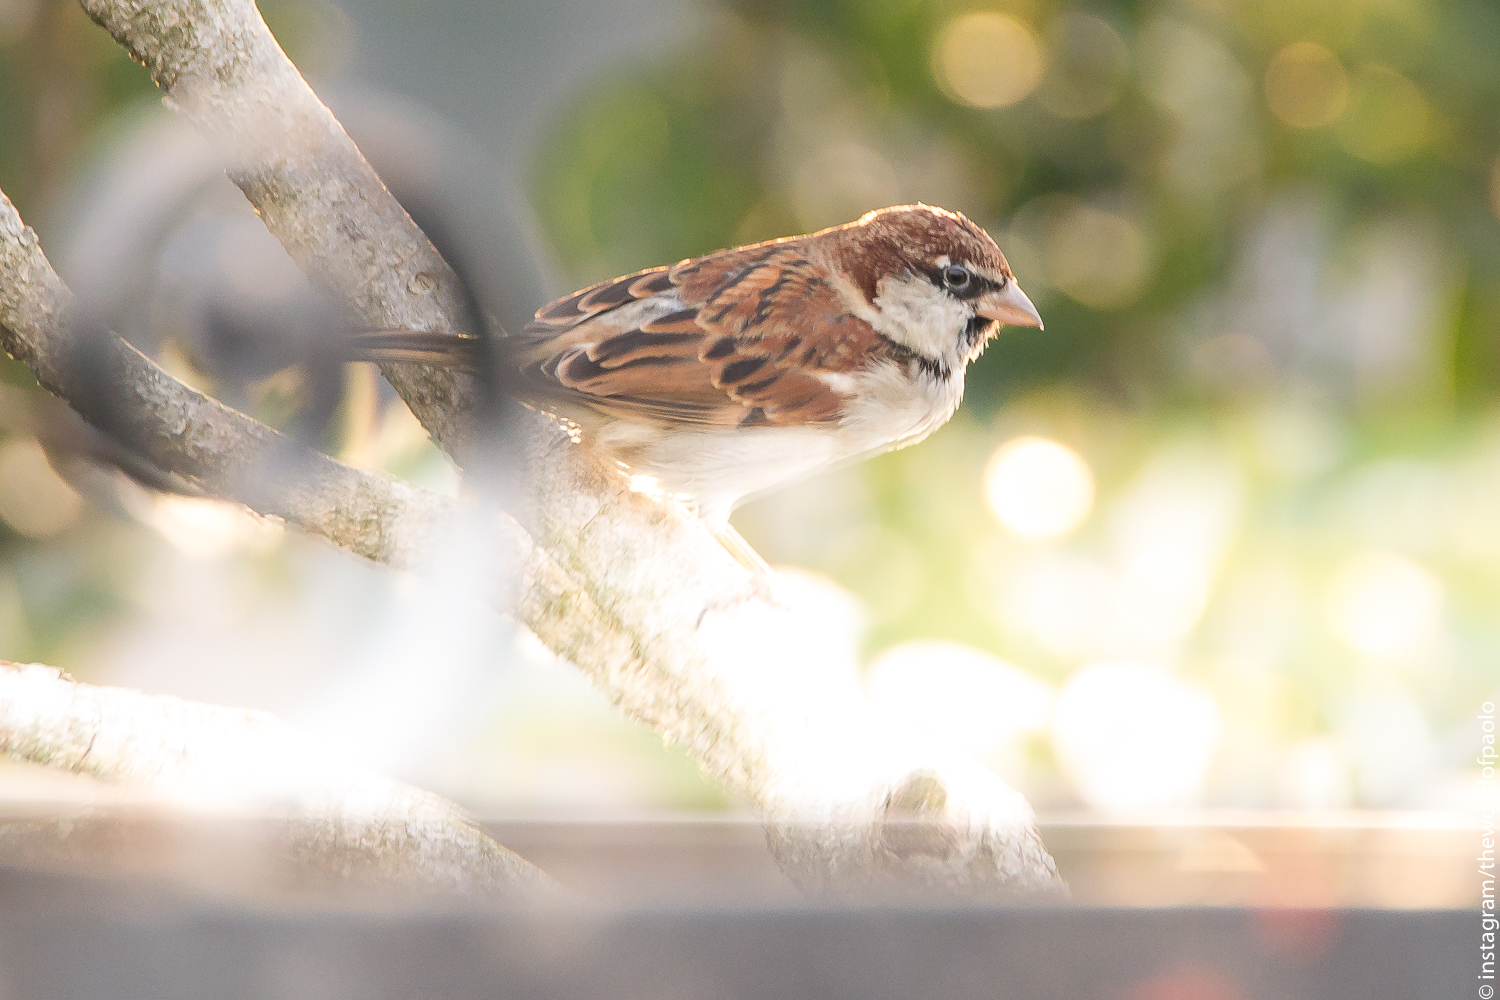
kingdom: Animalia
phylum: Chordata
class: Aves
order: Passeriformes
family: Passeridae
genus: Passer
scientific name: Passer italiae
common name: Italian sparrow
